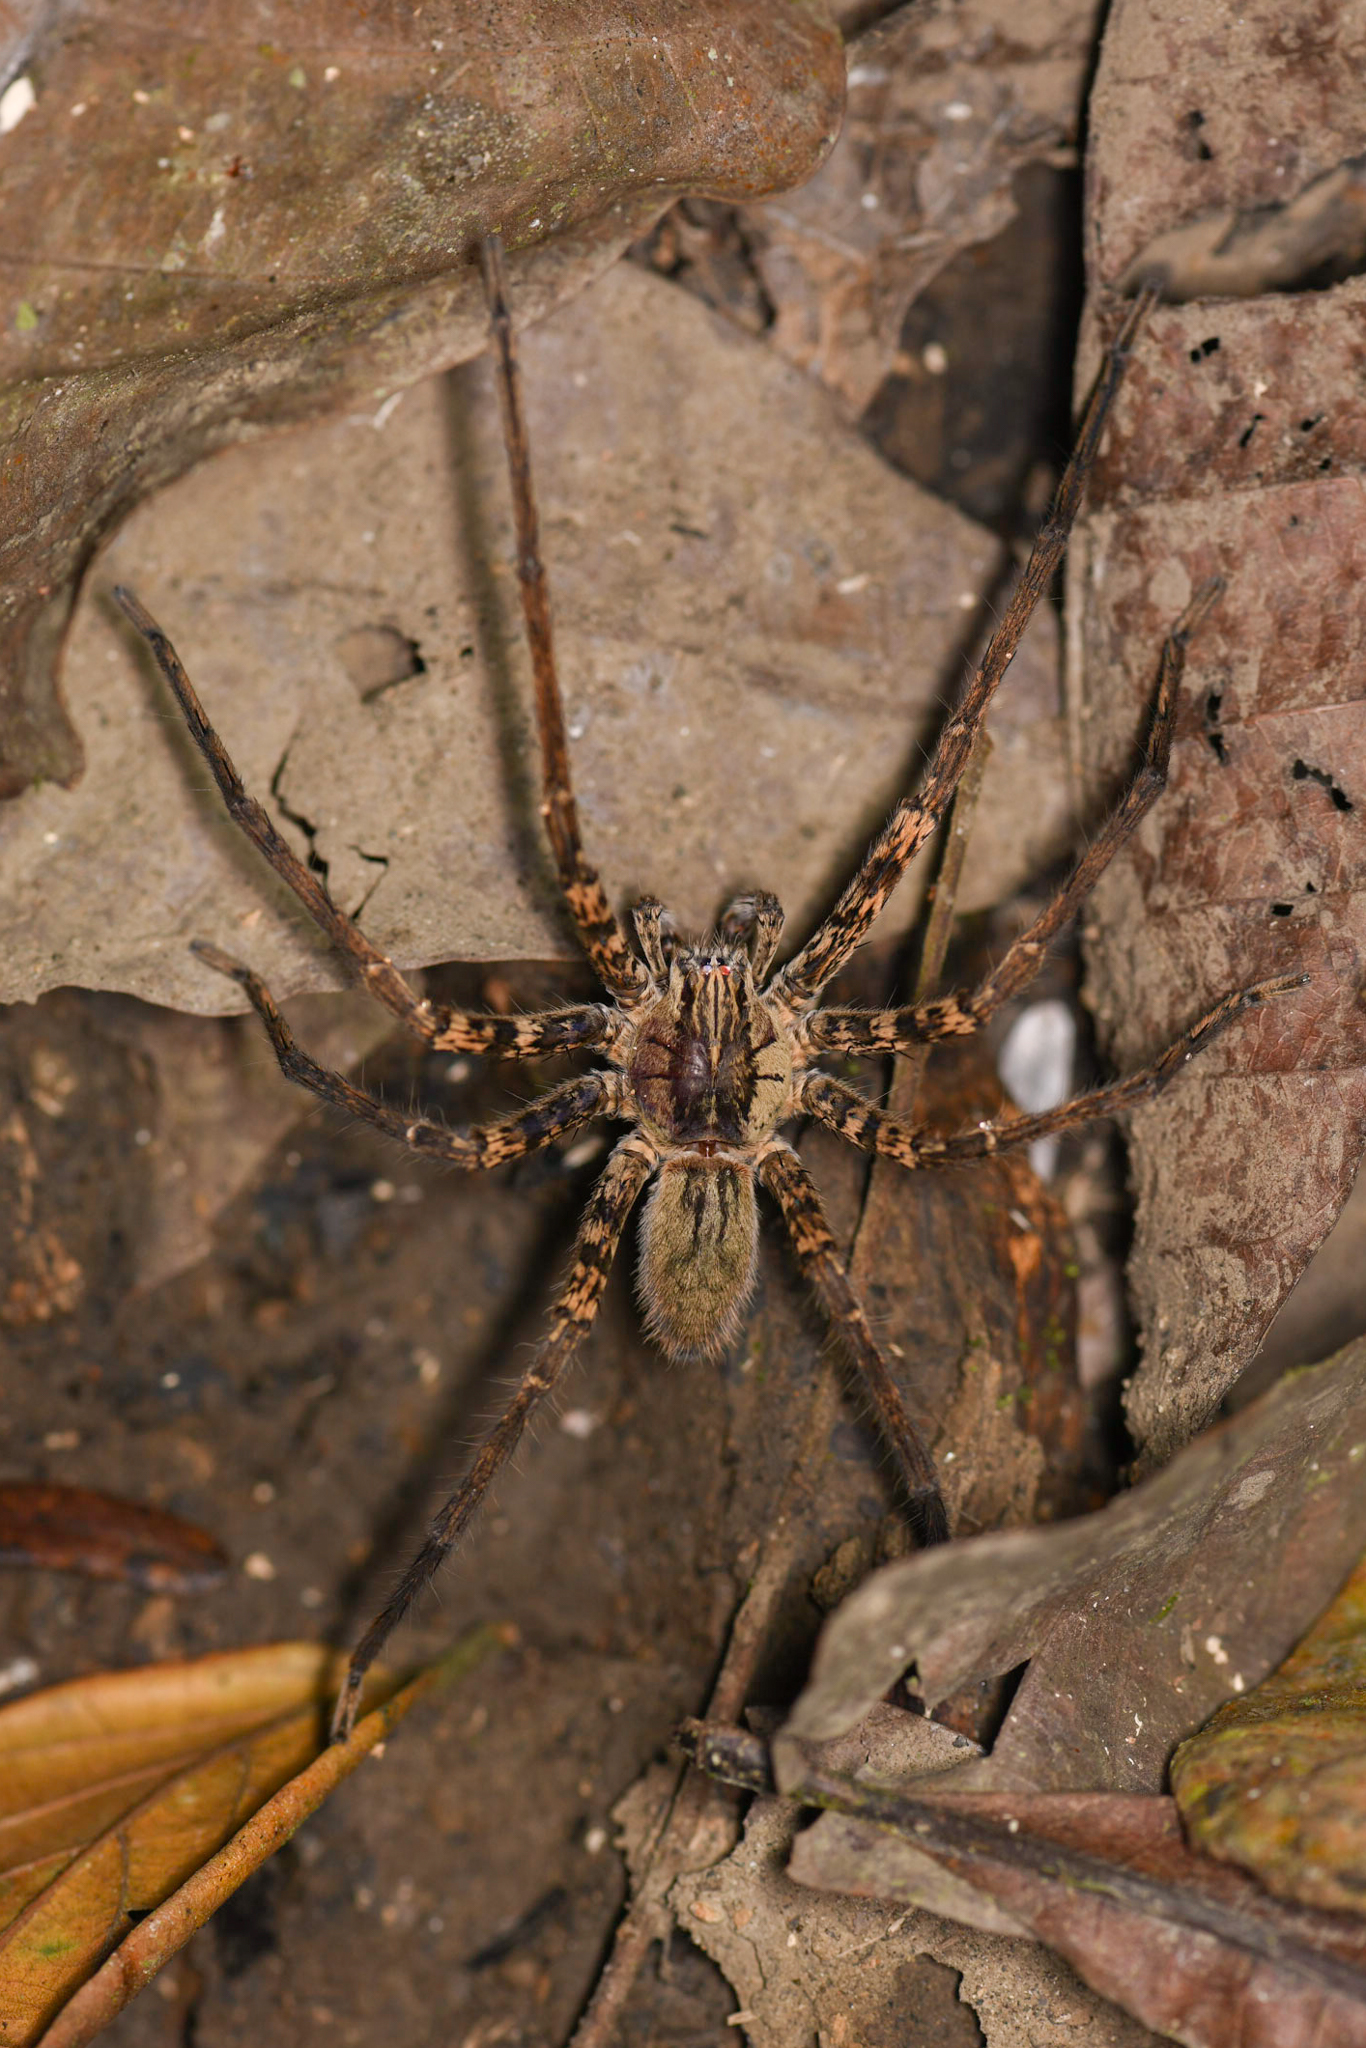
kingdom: Animalia
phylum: Arthropoda
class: Arachnida
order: Araneae
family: Trechaleidae
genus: Cupiennius
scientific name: Cupiennius coccineus
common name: Wandering spiders
